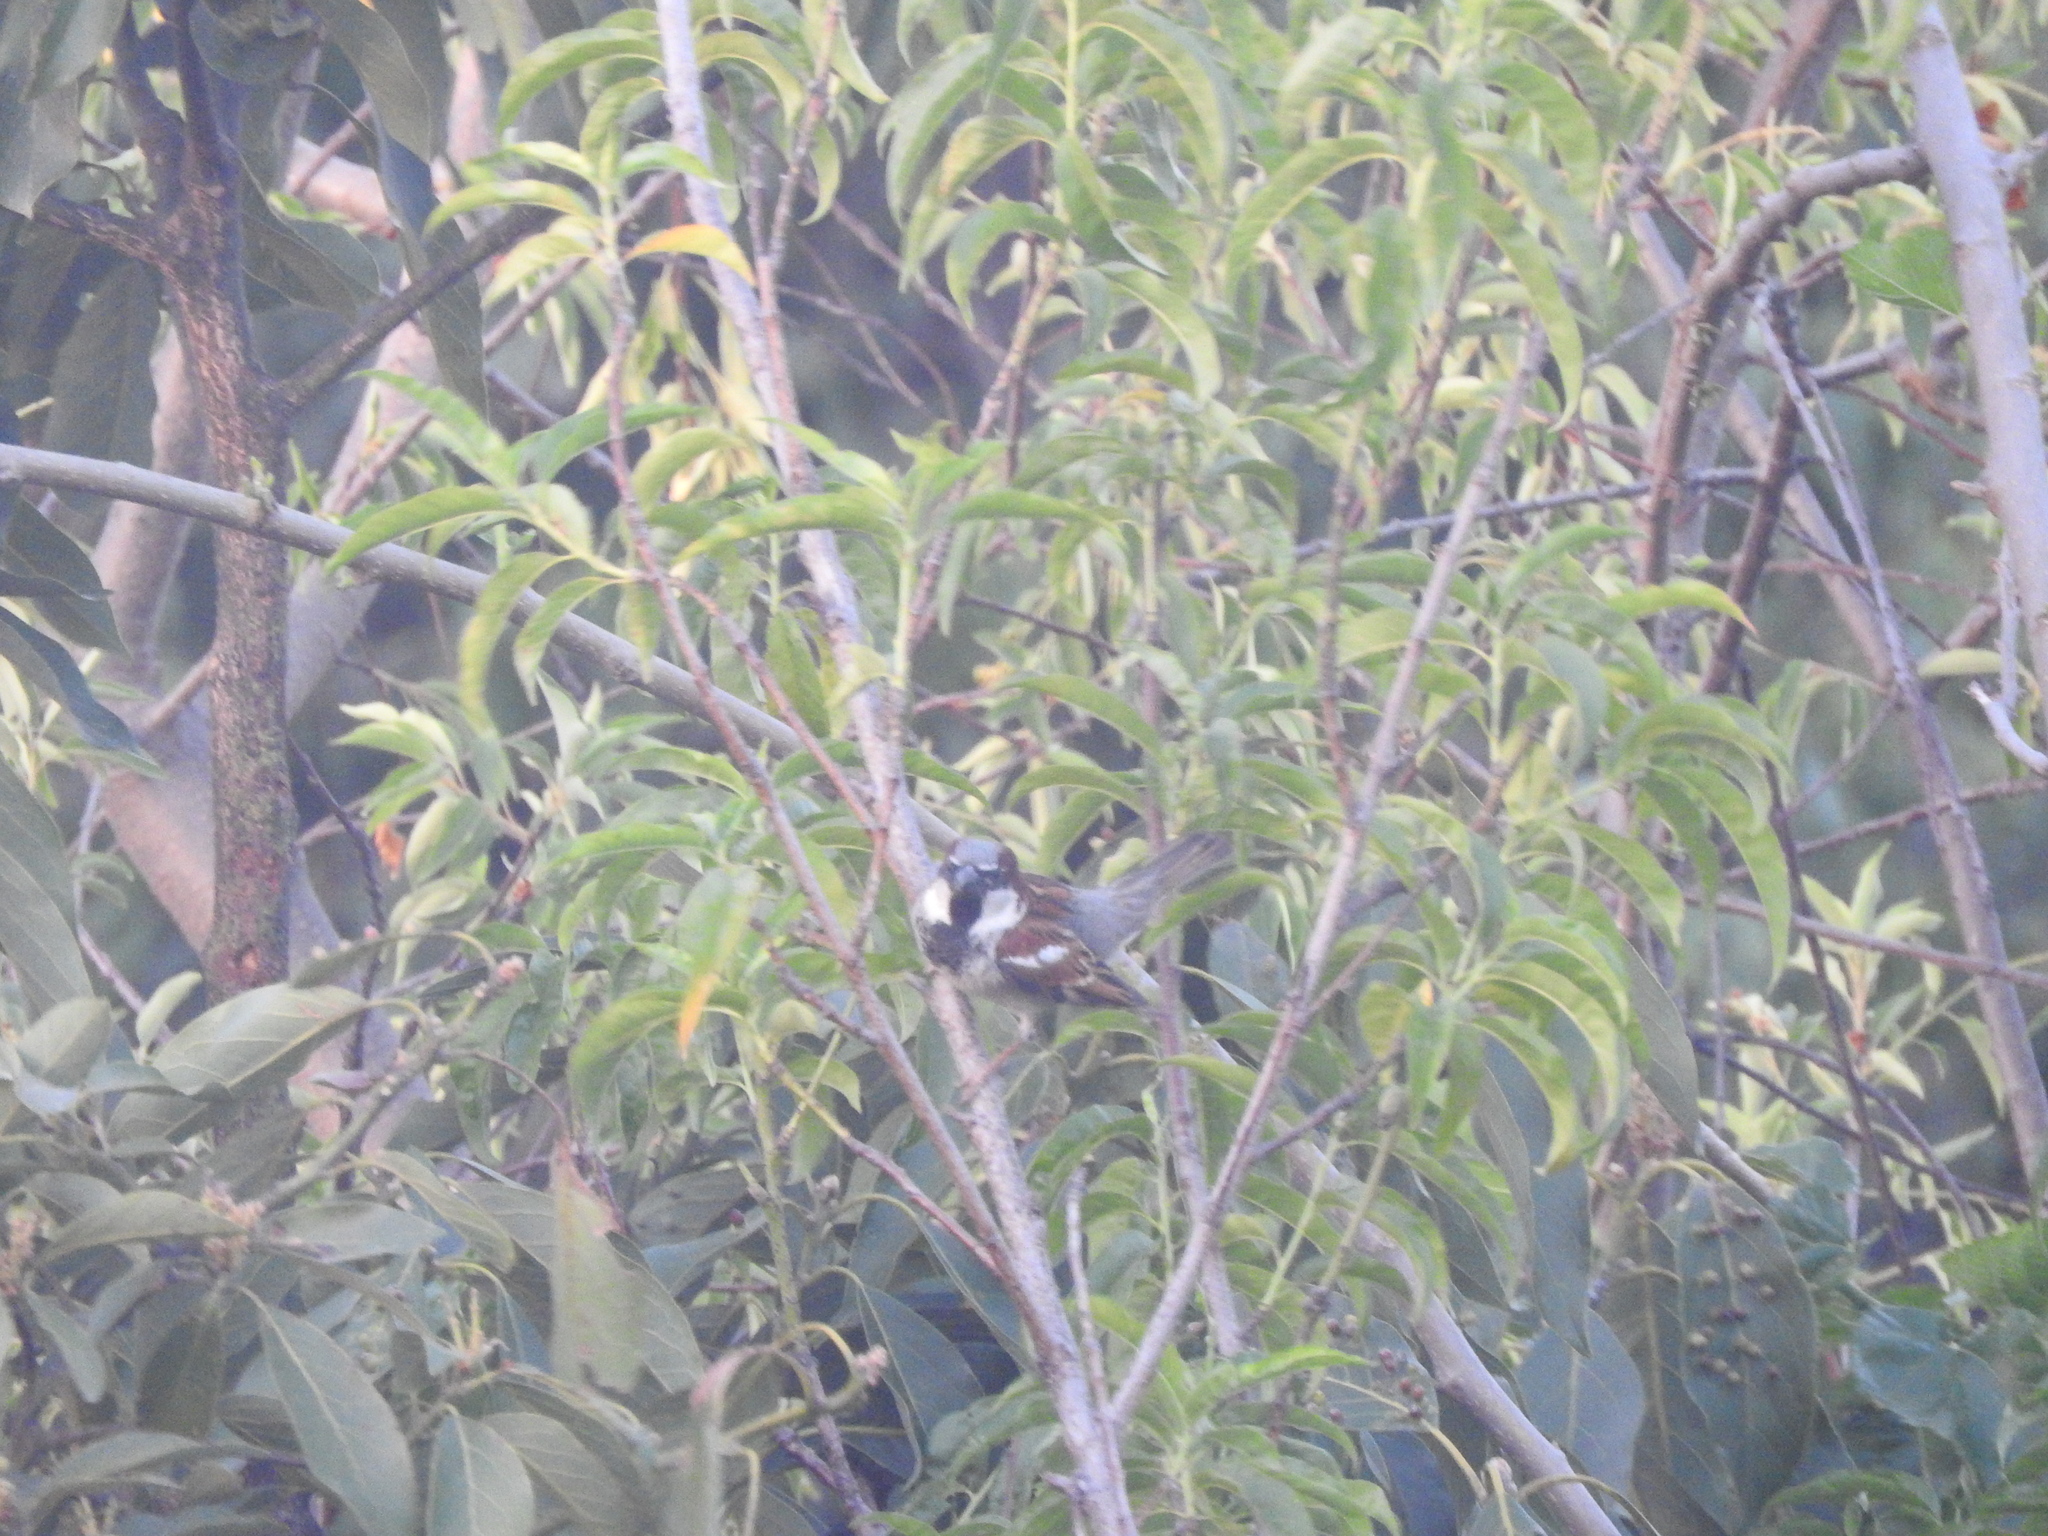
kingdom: Animalia
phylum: Chordata
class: Aves
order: Passeriformes
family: Passeridae
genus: Passer
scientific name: Passer domesticus
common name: House sparrow
